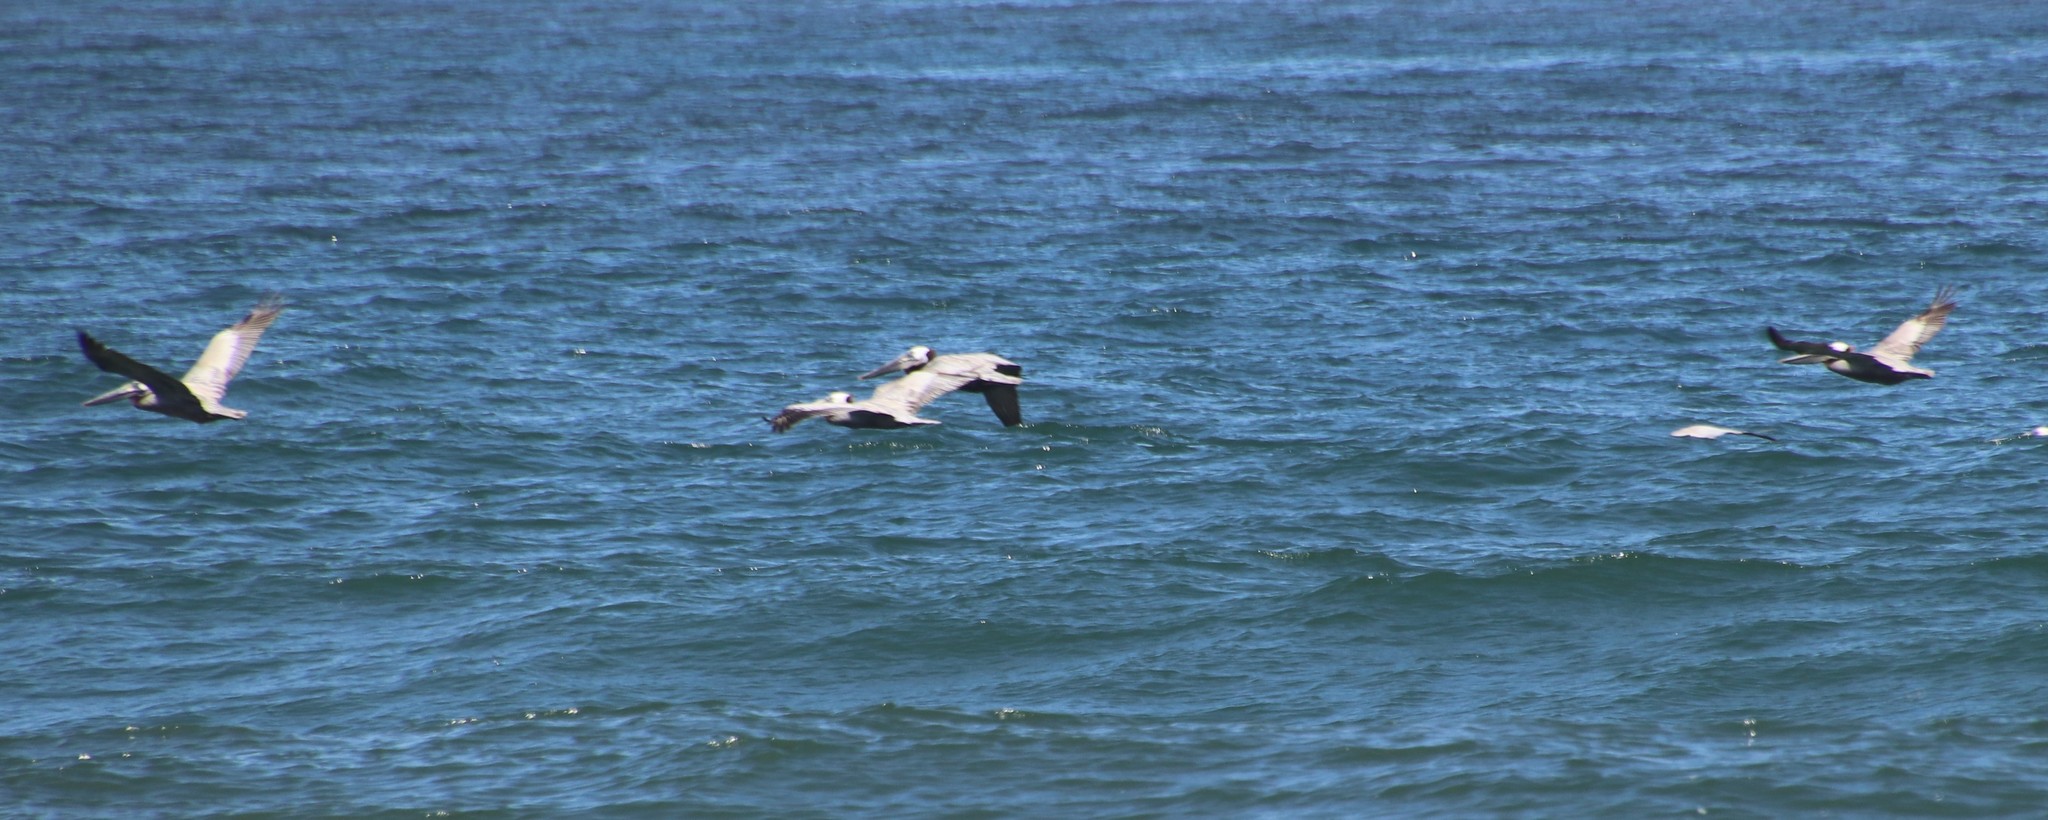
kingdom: Animalia
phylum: Chordata
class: Aves
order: Pelecaniformes
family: Pelecanidae
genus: Pelecanus
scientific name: Pelecanus occidentalis
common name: Brown pelican
